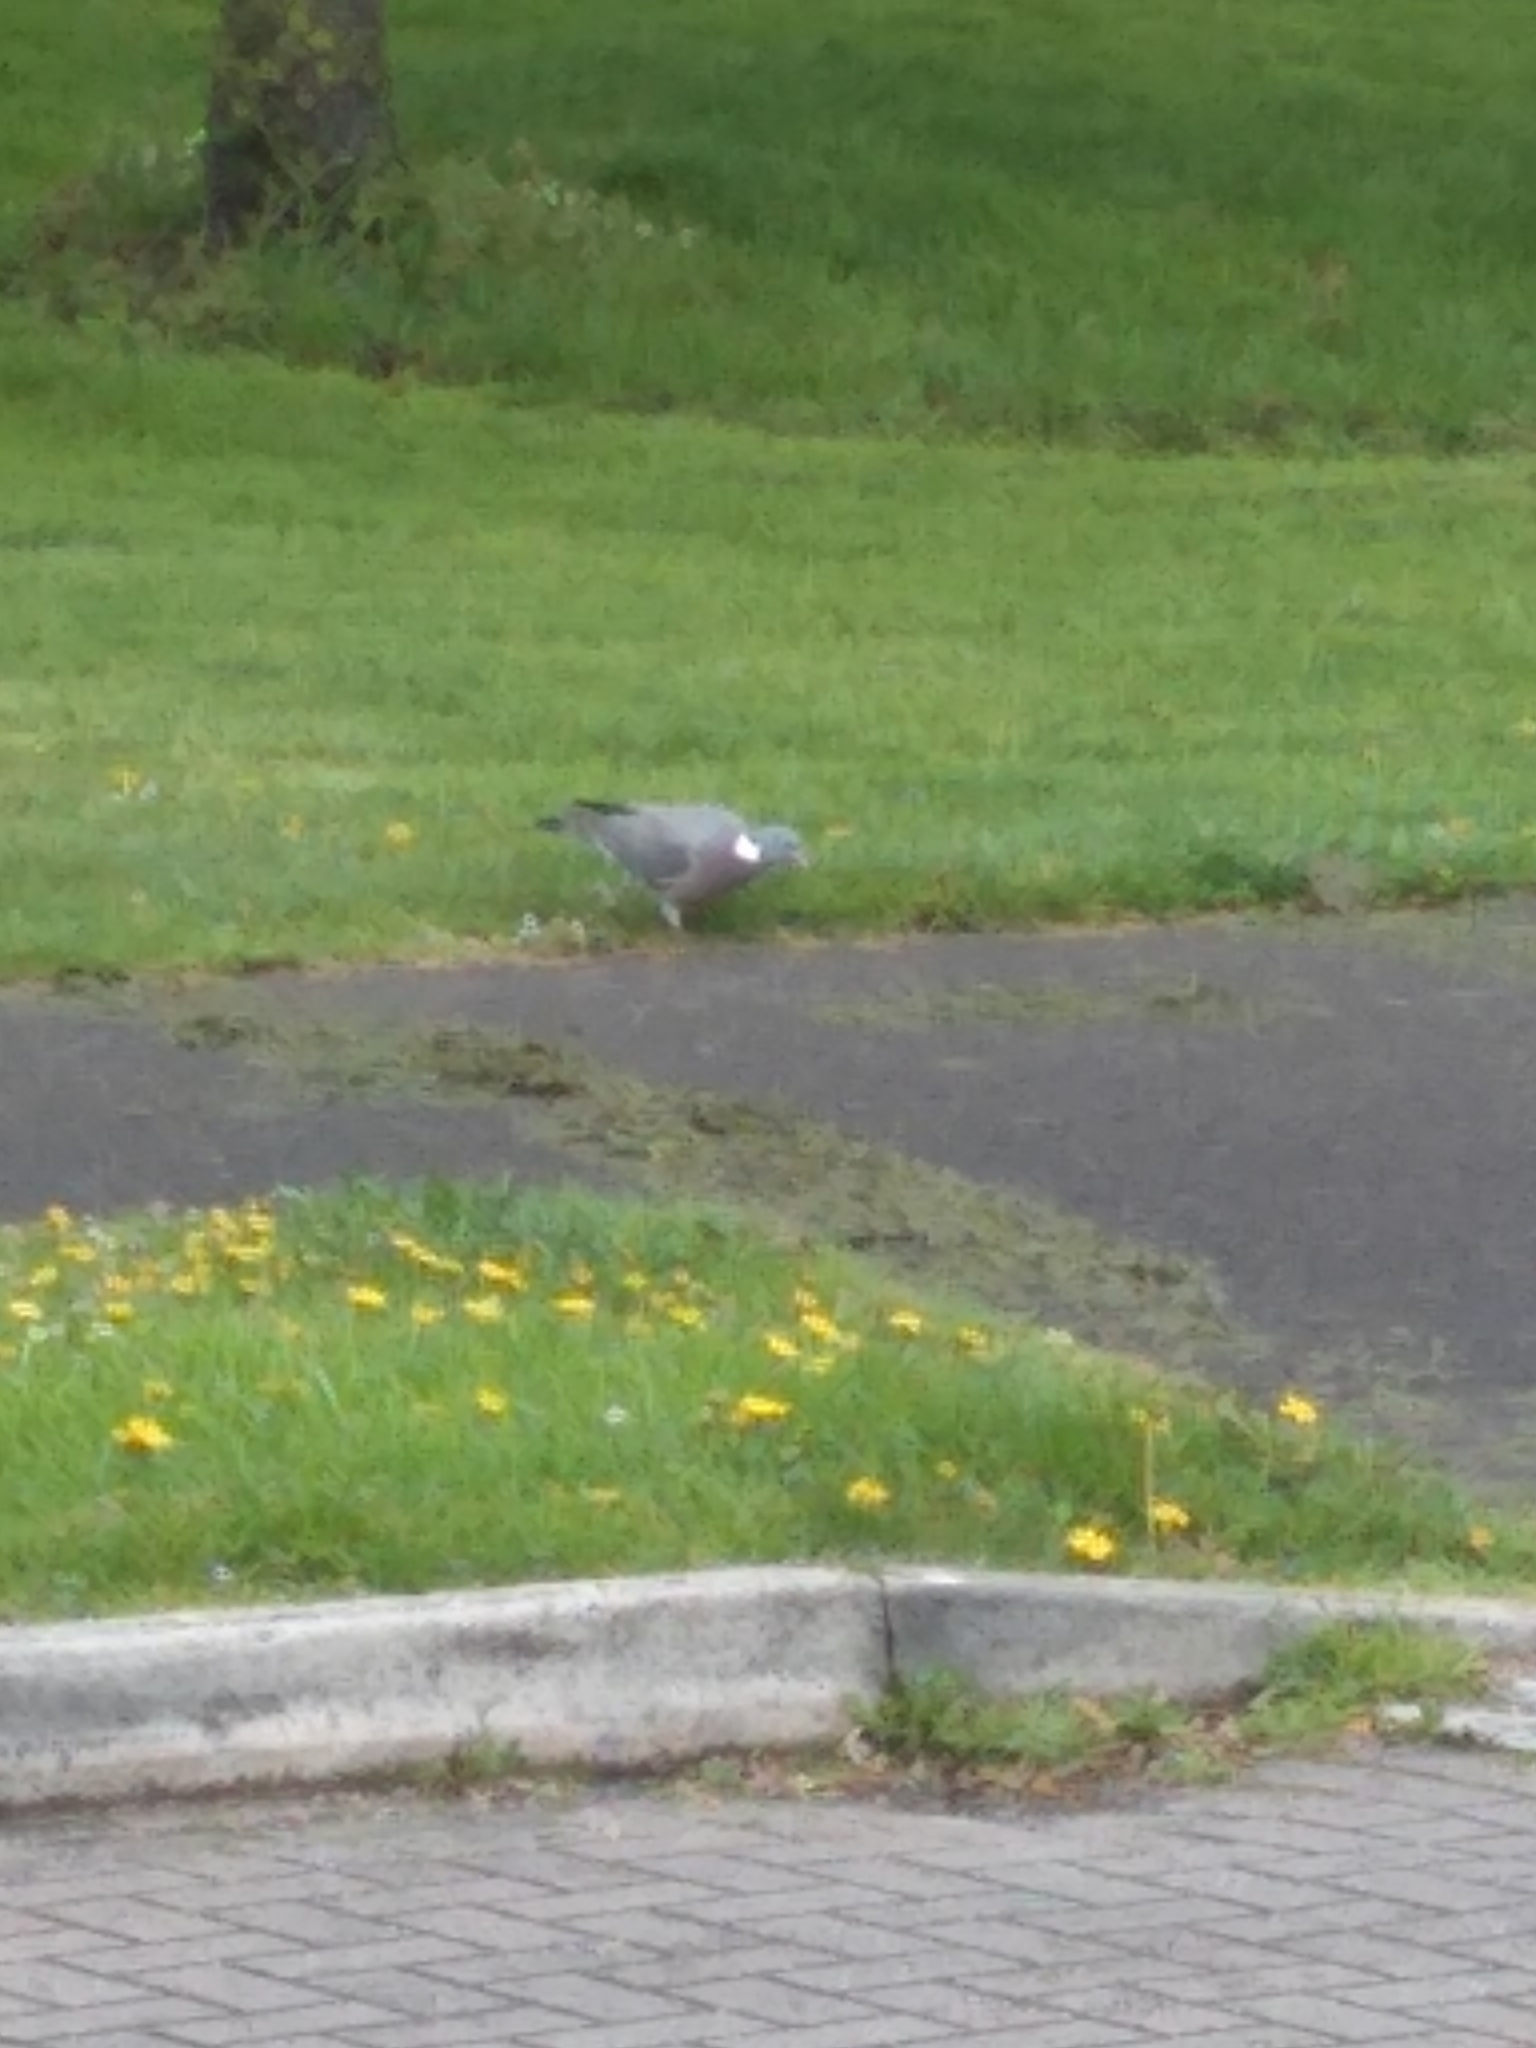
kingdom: Animalia
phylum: Chordata
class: Aves
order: Columbiformes
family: Columbidae
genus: Columba
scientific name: Columba palumbus
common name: Common wood pigeon
